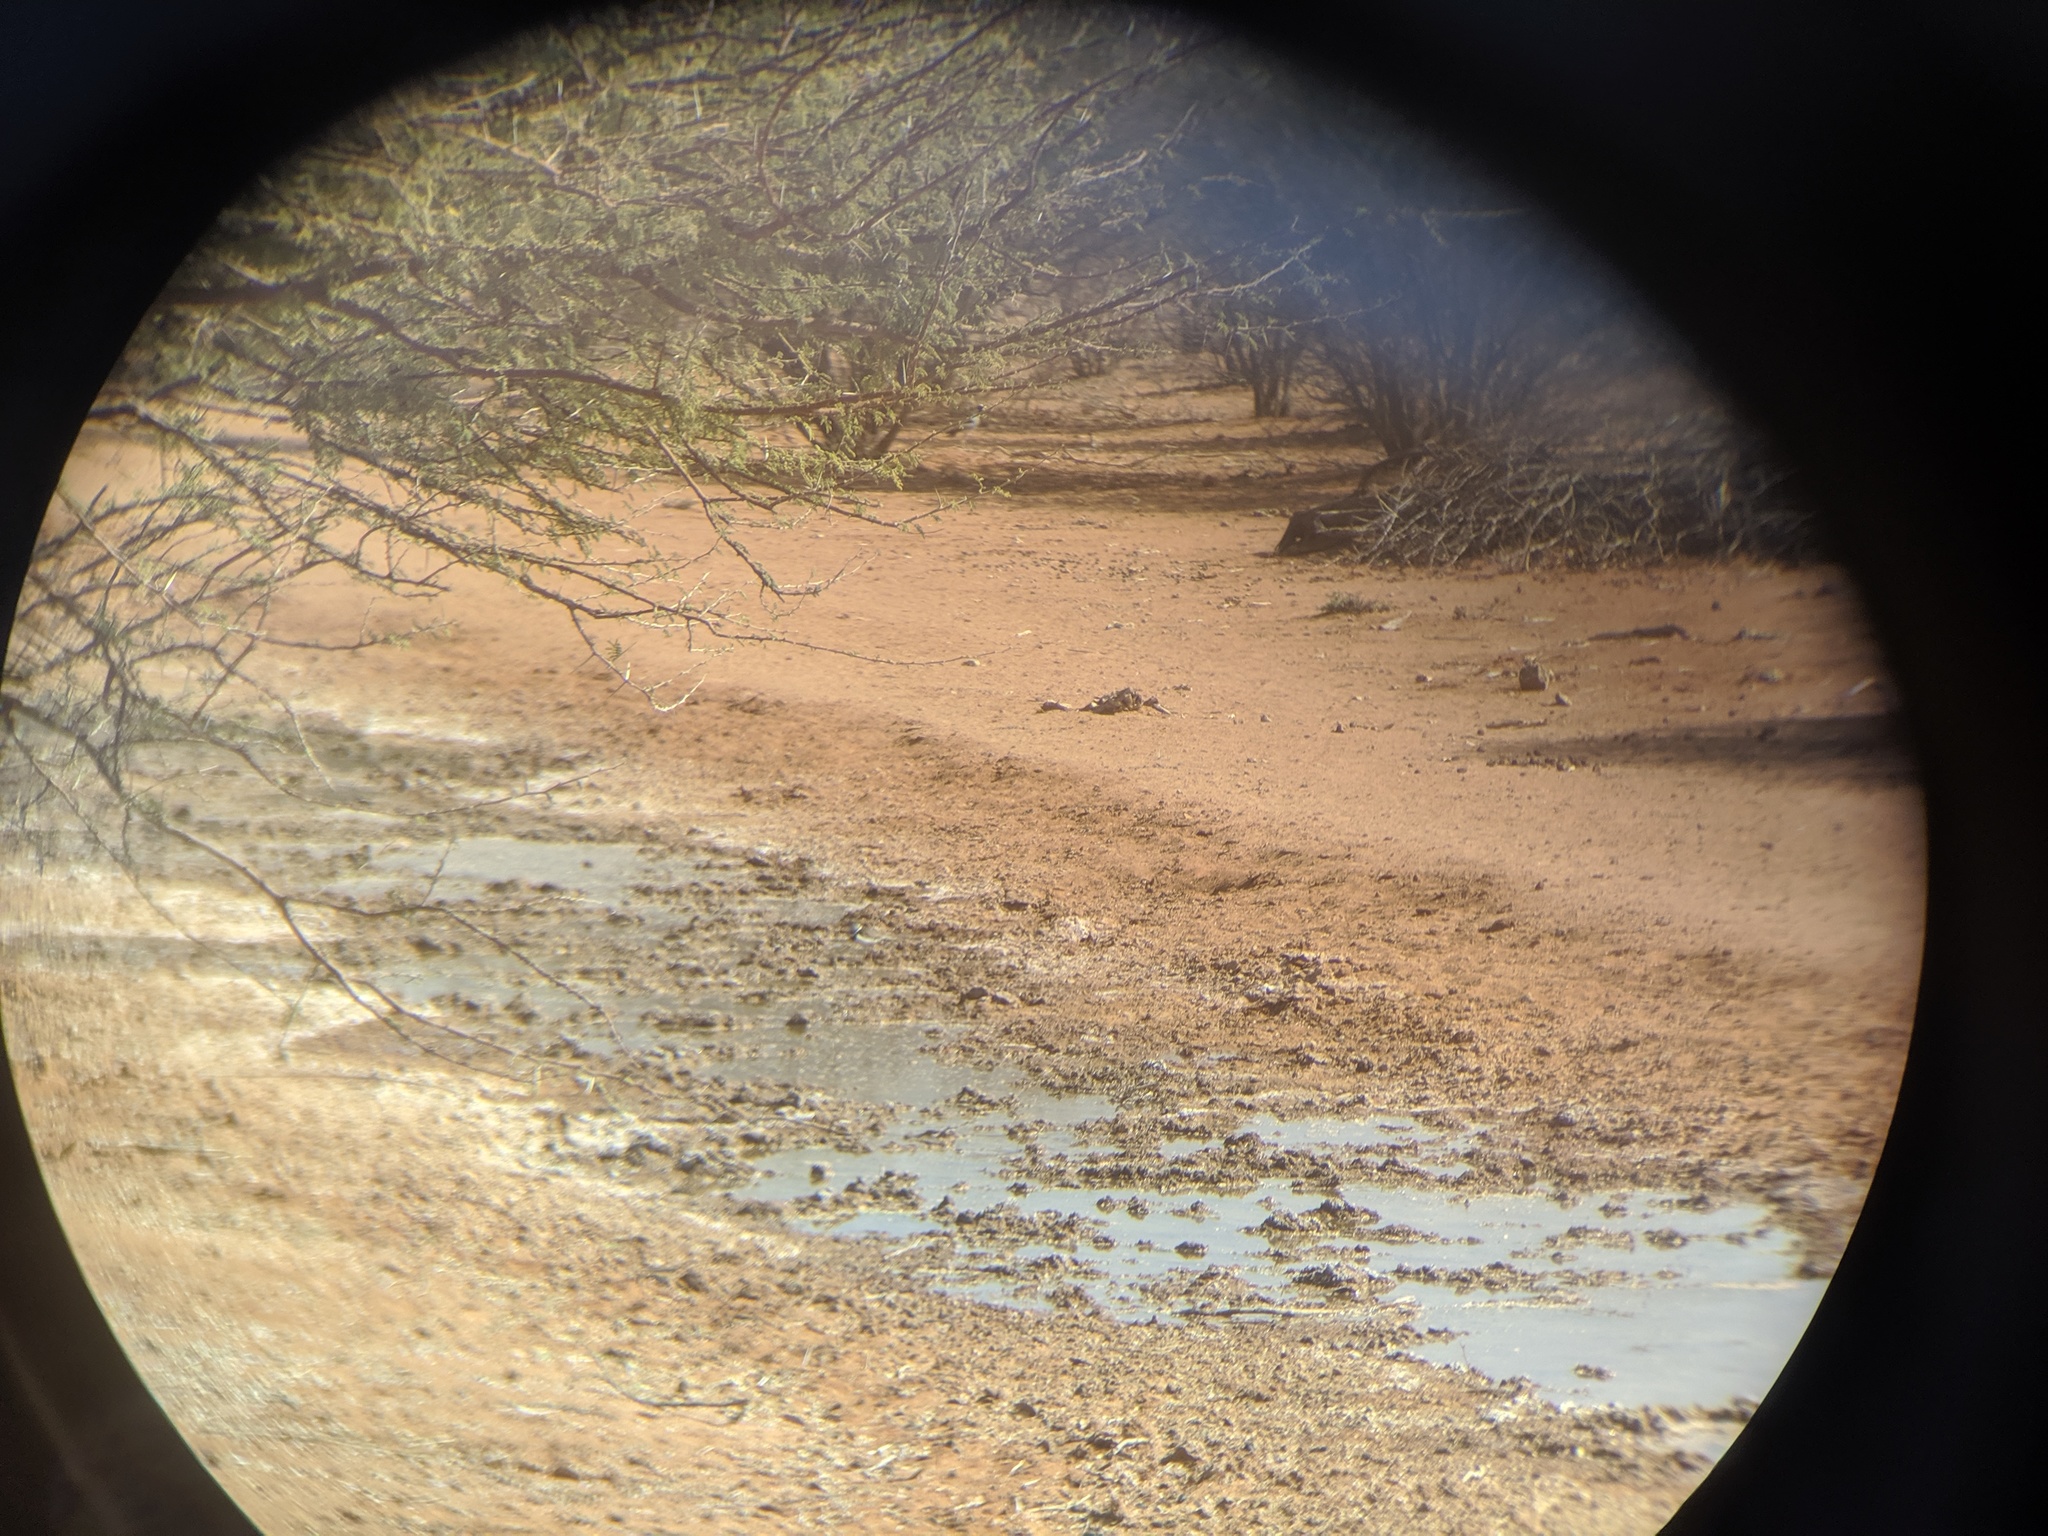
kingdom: Animalia
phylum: Chordata
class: Aves
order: Charadriiformes
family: Charadriidae
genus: Charadrius
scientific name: Charadrius tricollaris
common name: Three-banded plover
